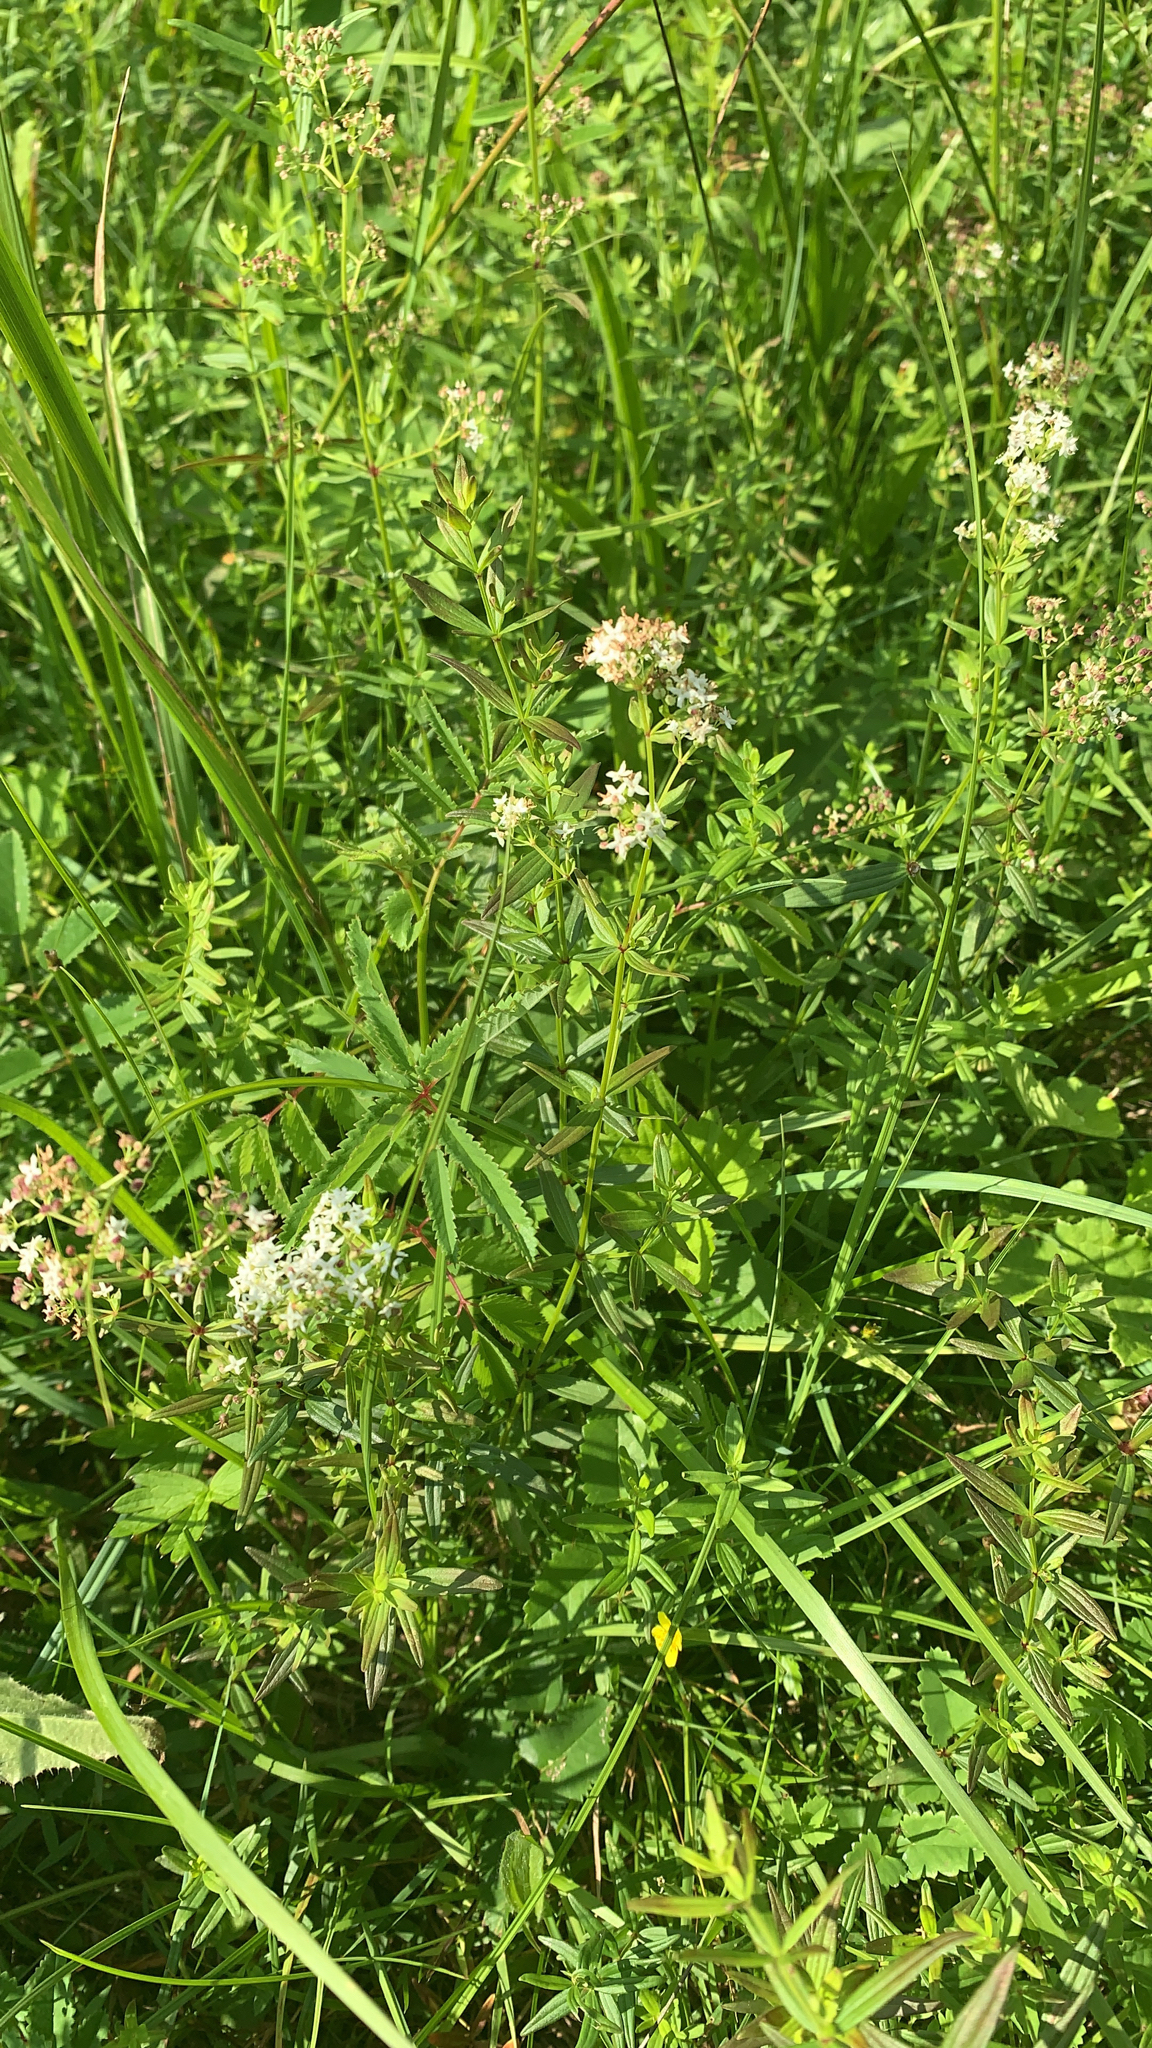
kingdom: Plantae
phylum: Tracheophyta
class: Magnoliopsida
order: Gentianales
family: Rubiaceae
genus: Galium
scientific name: Galium boreale
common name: Northern bedstraw
